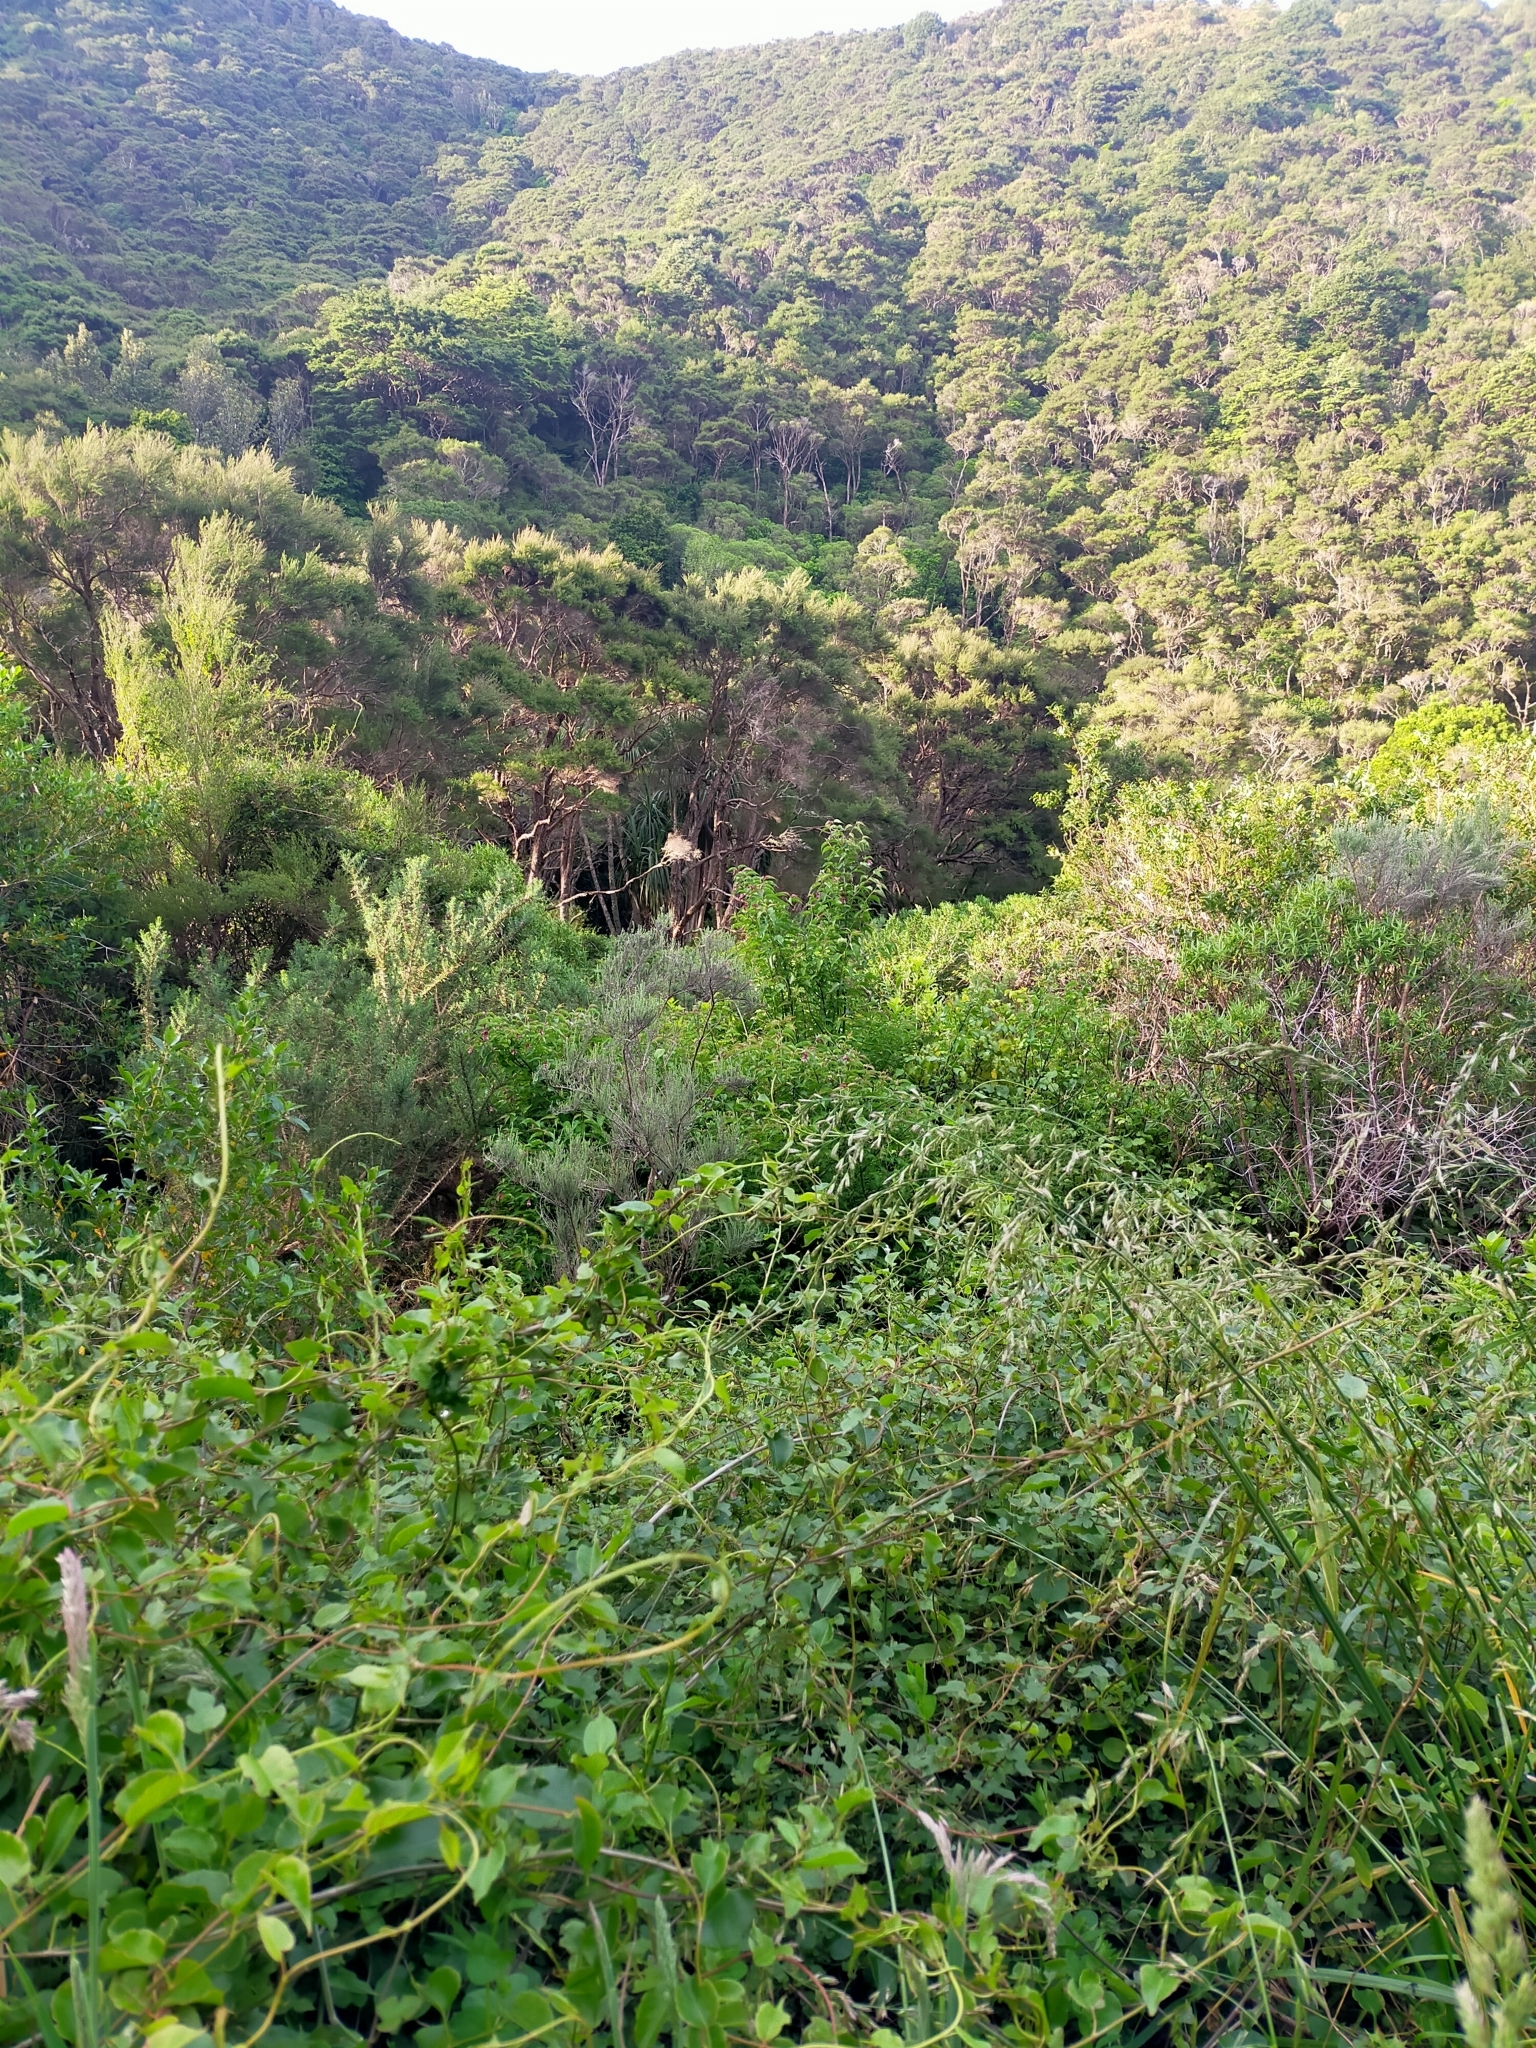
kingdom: Plantae
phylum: Tracheophyta
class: Magnoliopsida
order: Dipsacales
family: Caprifoliaceae
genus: Leycesteria
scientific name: Leycesteria formosa
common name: Himalayan honeysuckle
